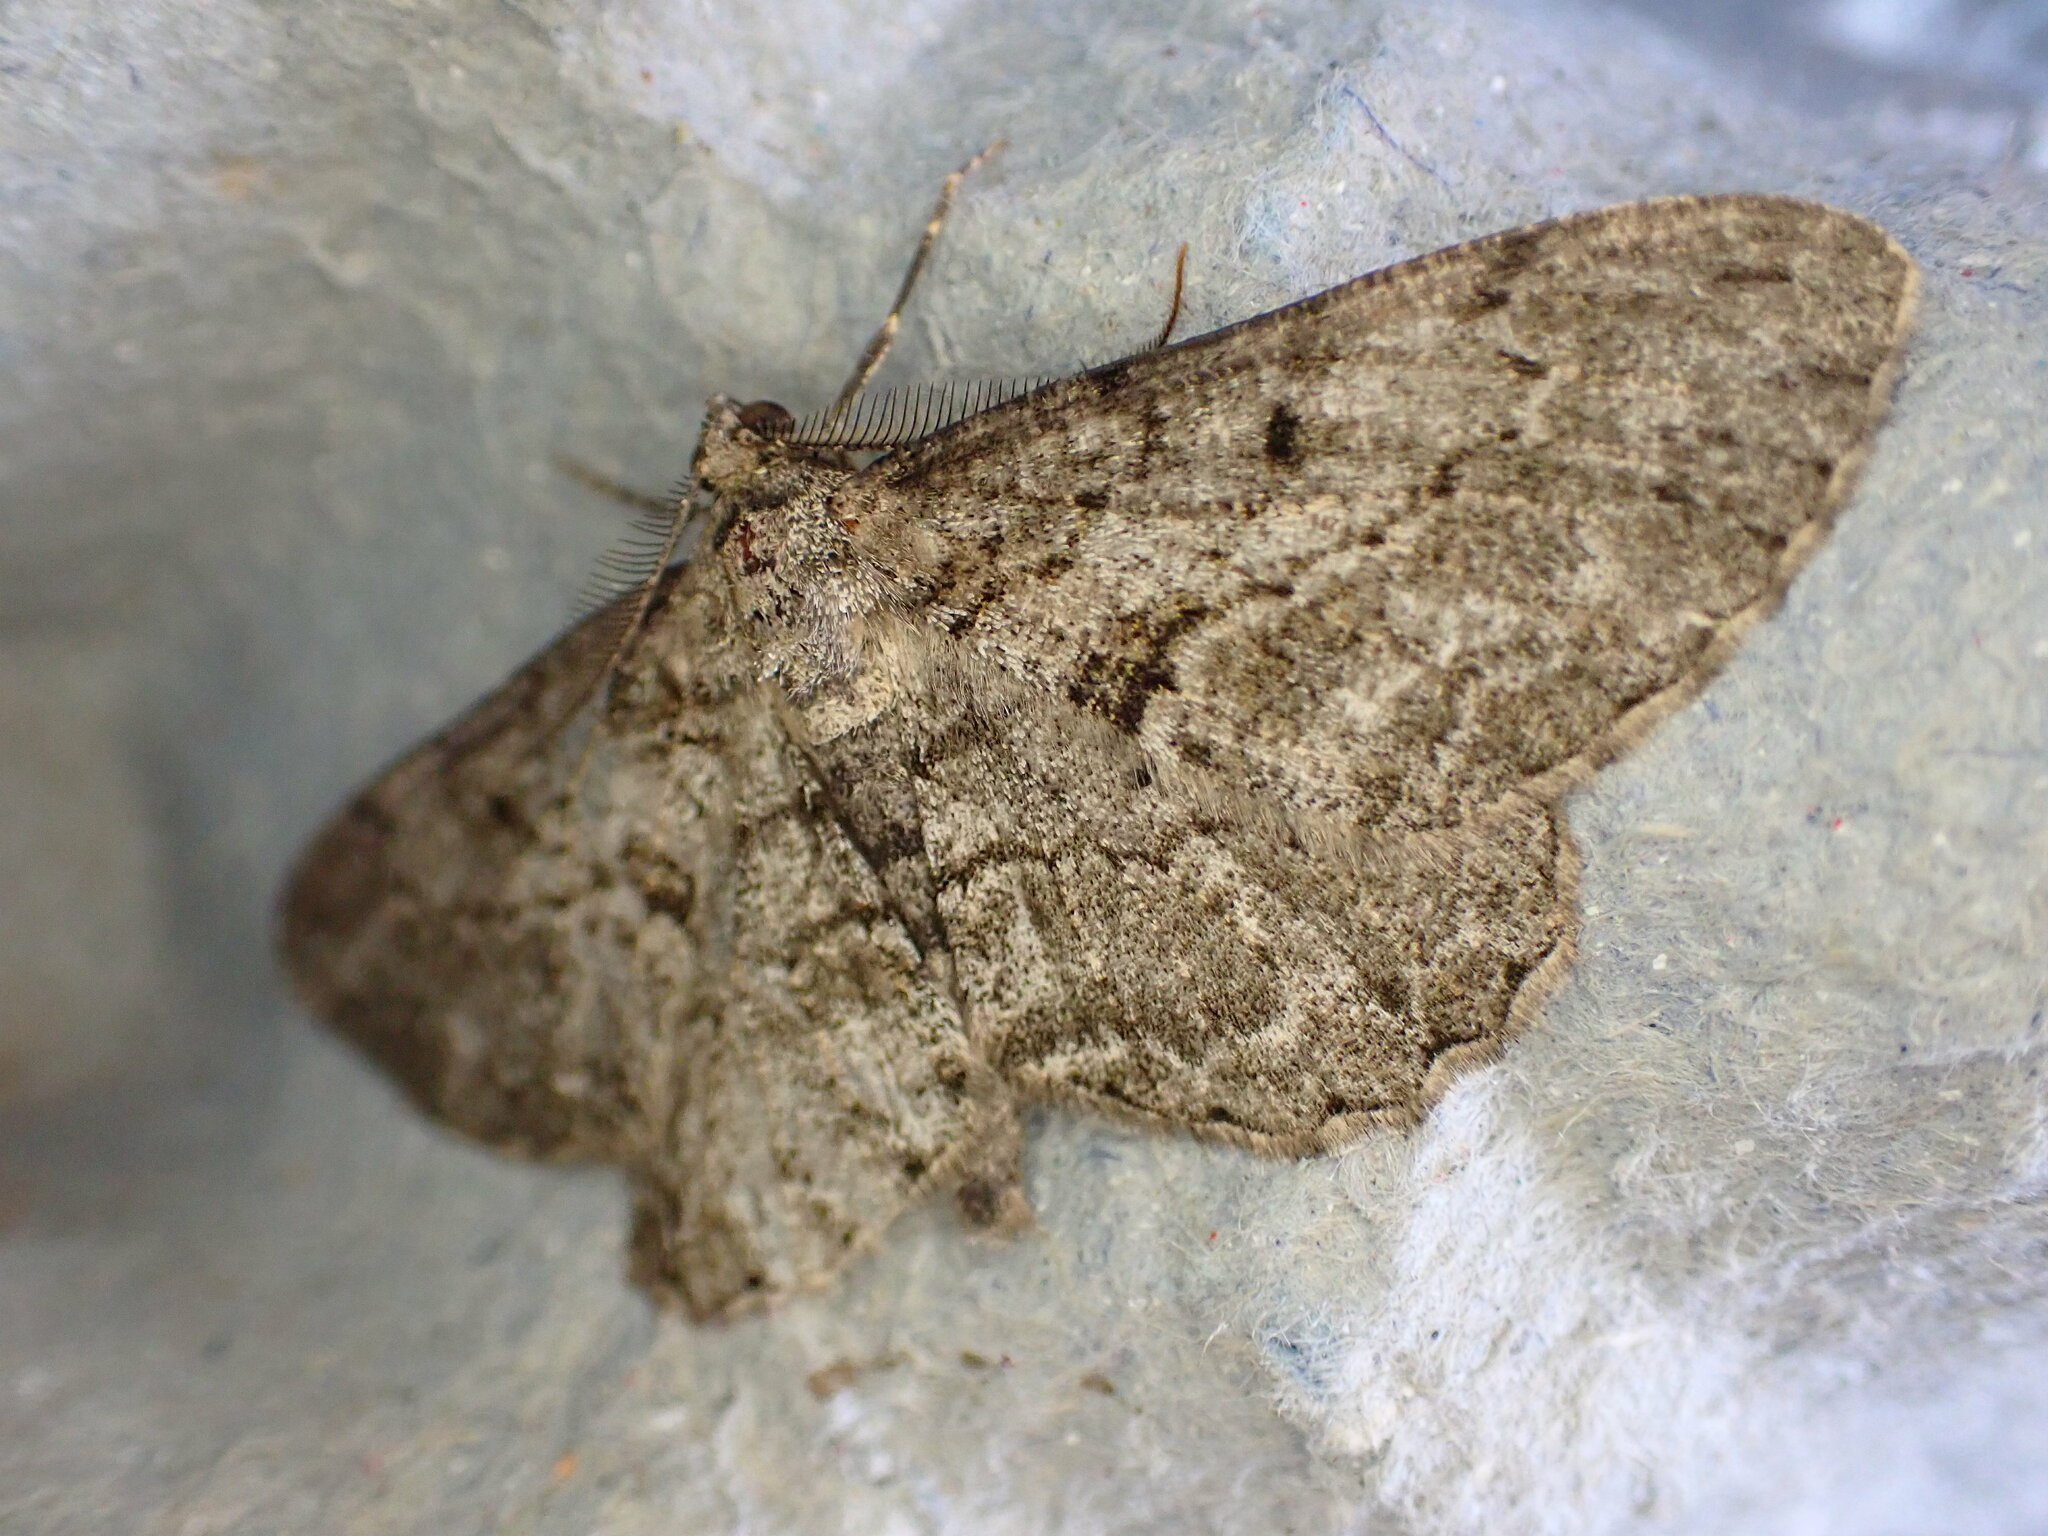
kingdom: Animalia
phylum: Arthropoda
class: Insecta
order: Lepidoptera
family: Geometridae
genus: Peribatodes
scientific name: Peribatodes rhomboidaria
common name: Willow beauty
